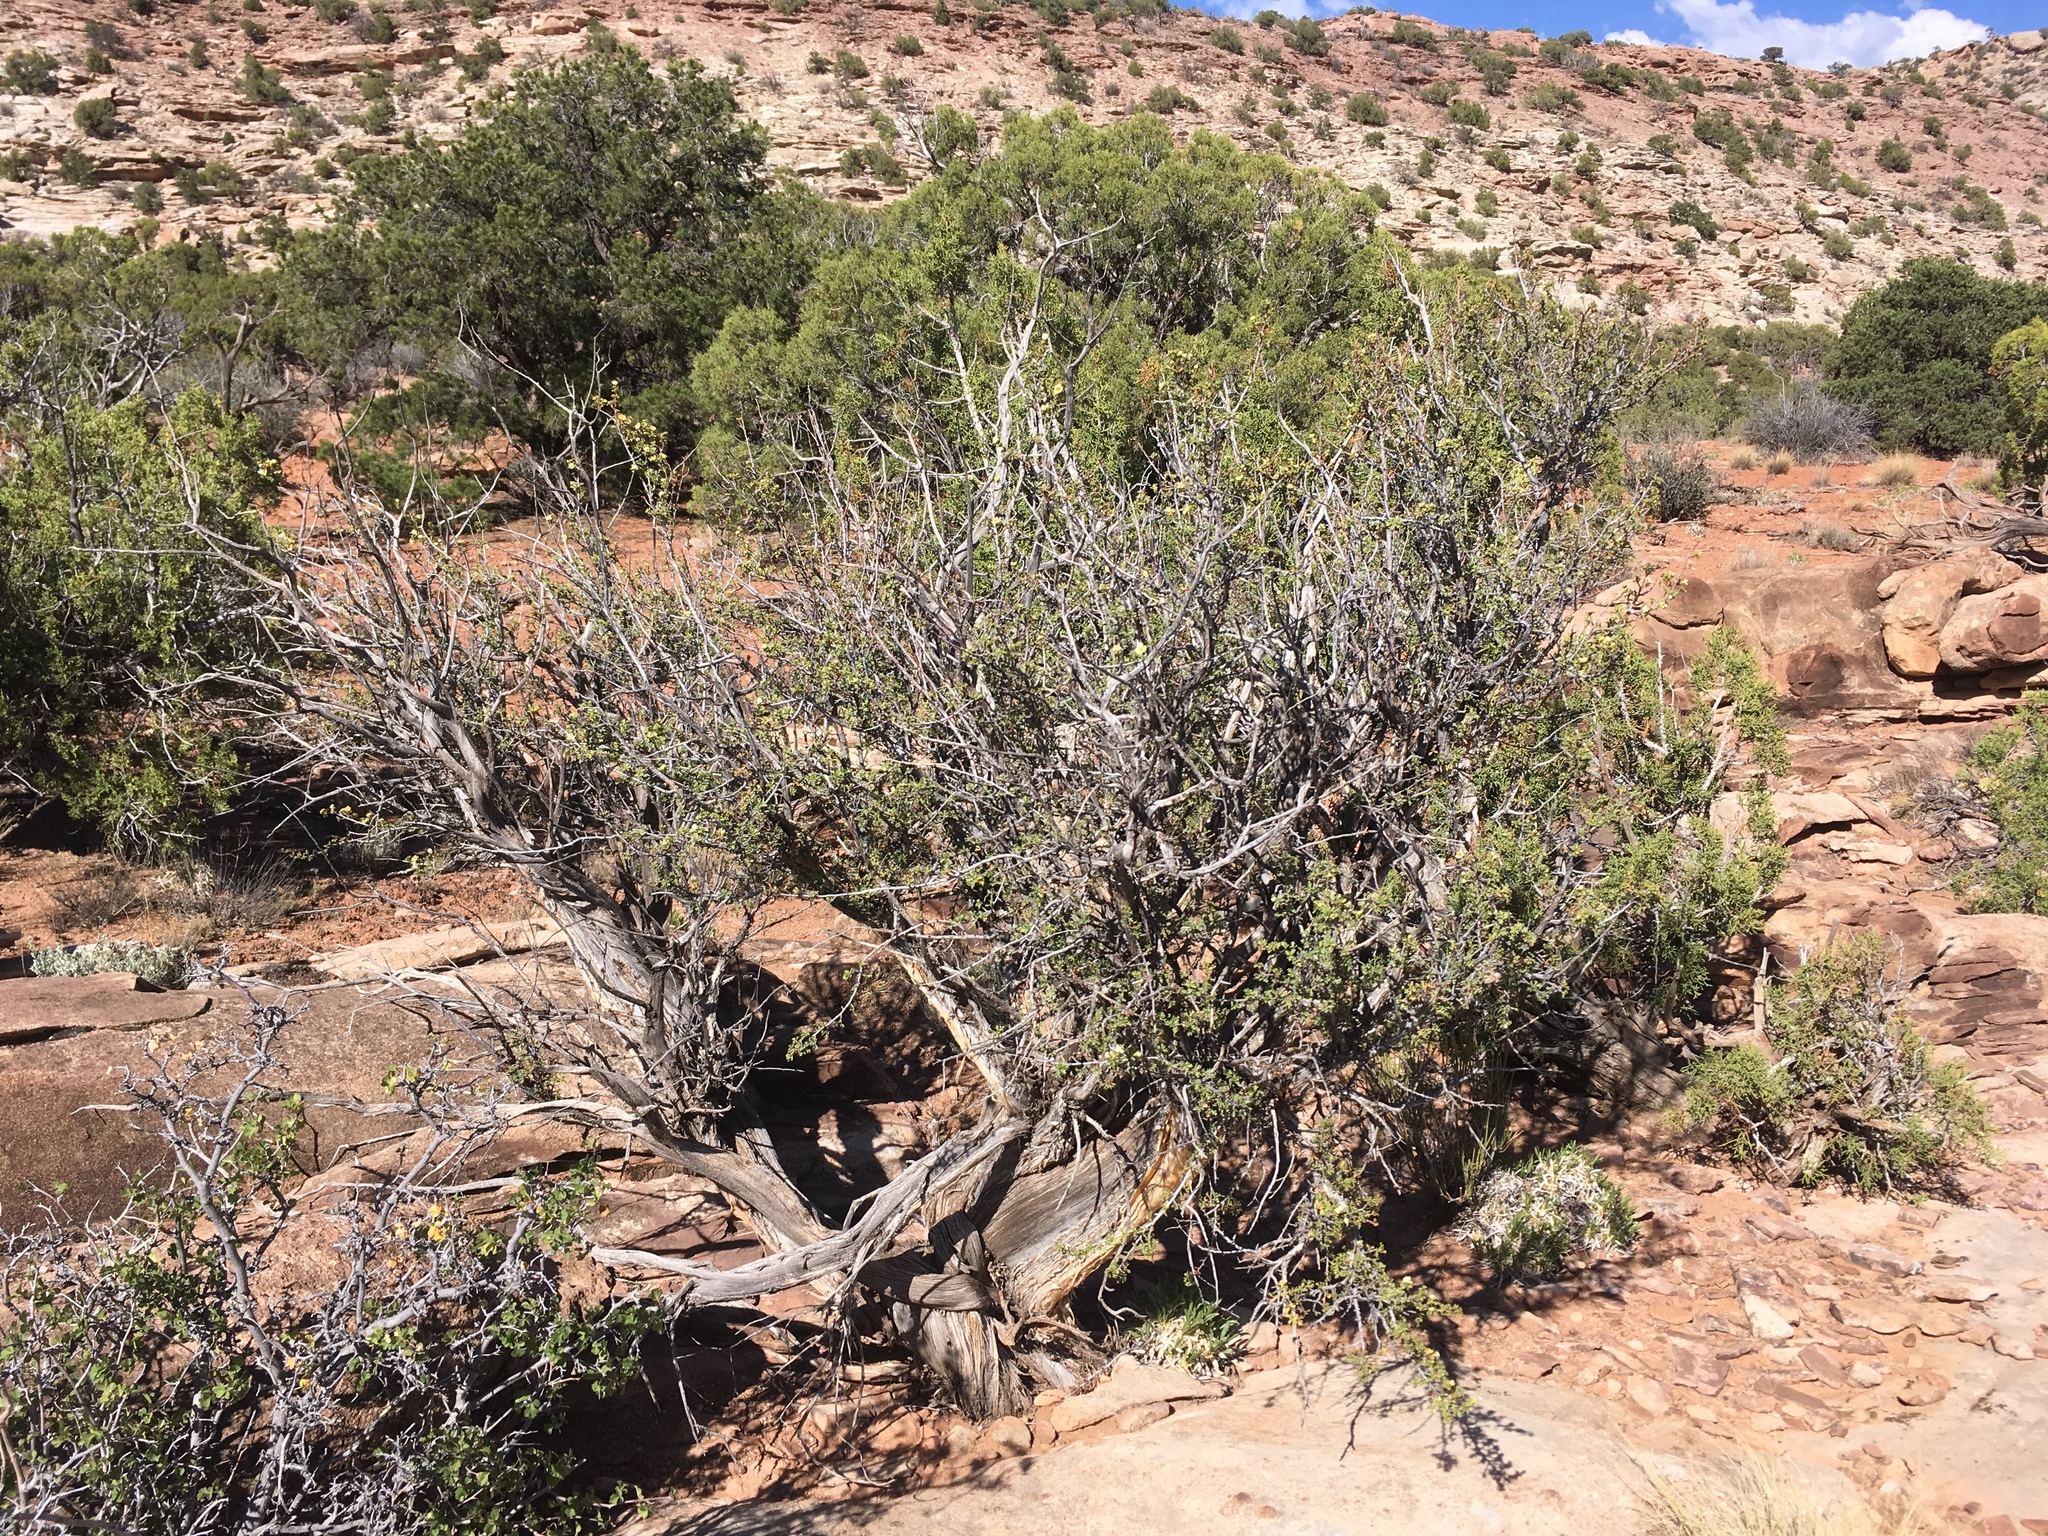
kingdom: Plantae
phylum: Tracheophyta
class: Magnoliopsida
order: Rosales
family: Rosaceae
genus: Purshia
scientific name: Purshia stansburiana
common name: Stansbury's cliffrose
